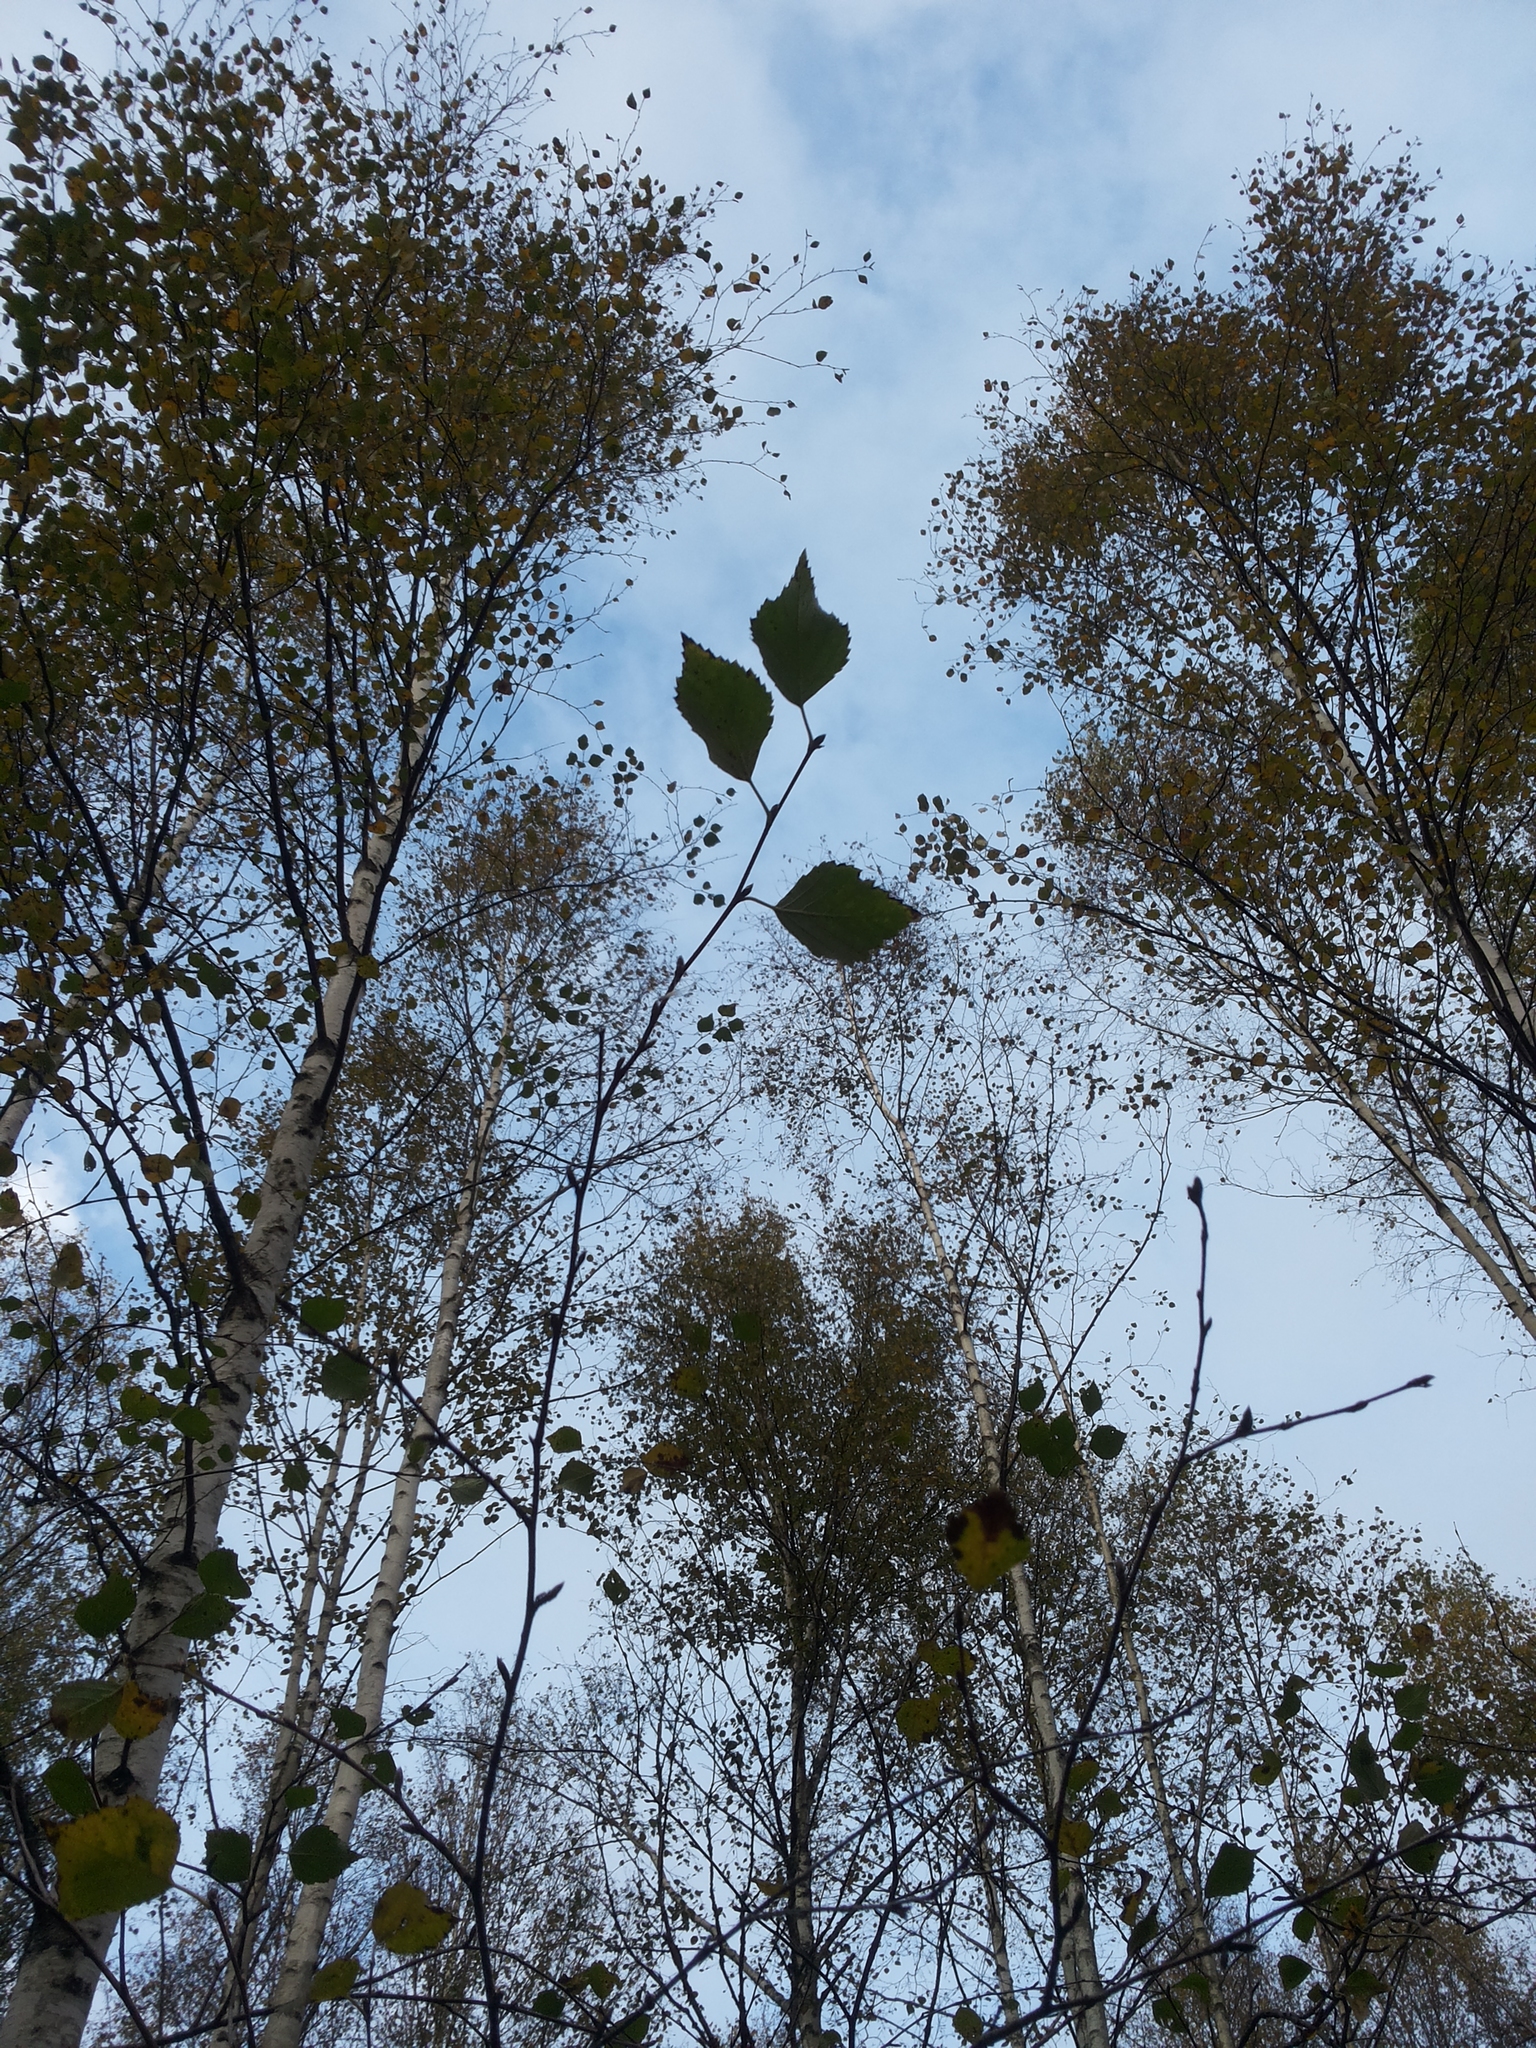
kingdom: Plantae
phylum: Tracheophyta
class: Magnoliopsida
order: Fagales
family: Betulaceae
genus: Betula
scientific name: Betula pendula
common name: Silver birch
